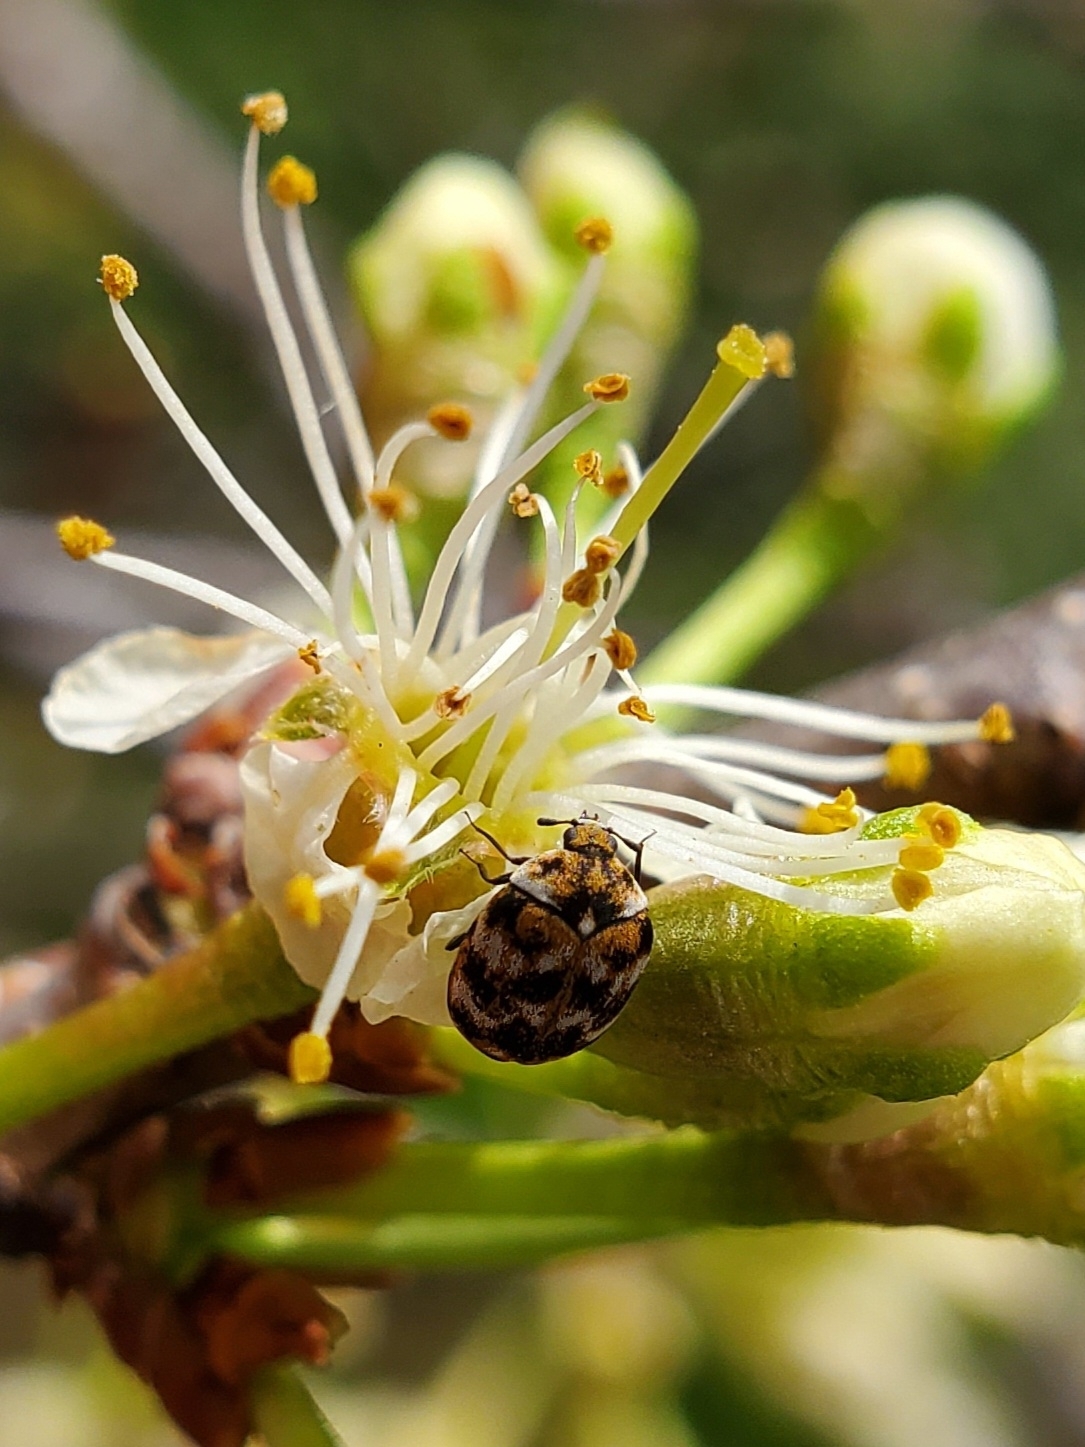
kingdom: Animalia
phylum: Arthropoda
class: Insecta
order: Coleoptera
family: Dermestidae
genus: Anthrenus
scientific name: Anthrenus verbasci
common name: Varied carpet beetle
